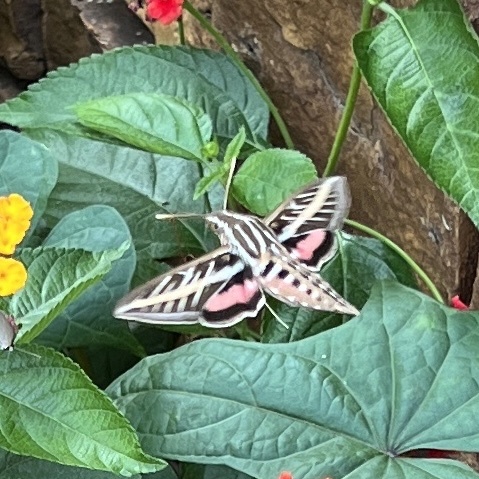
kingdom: Animalia
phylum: Arthropoda
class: Insecta
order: Lepidoptera
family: Sphingidae
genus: Hyles
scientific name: Hyles lineata
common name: White-lined sphinx
